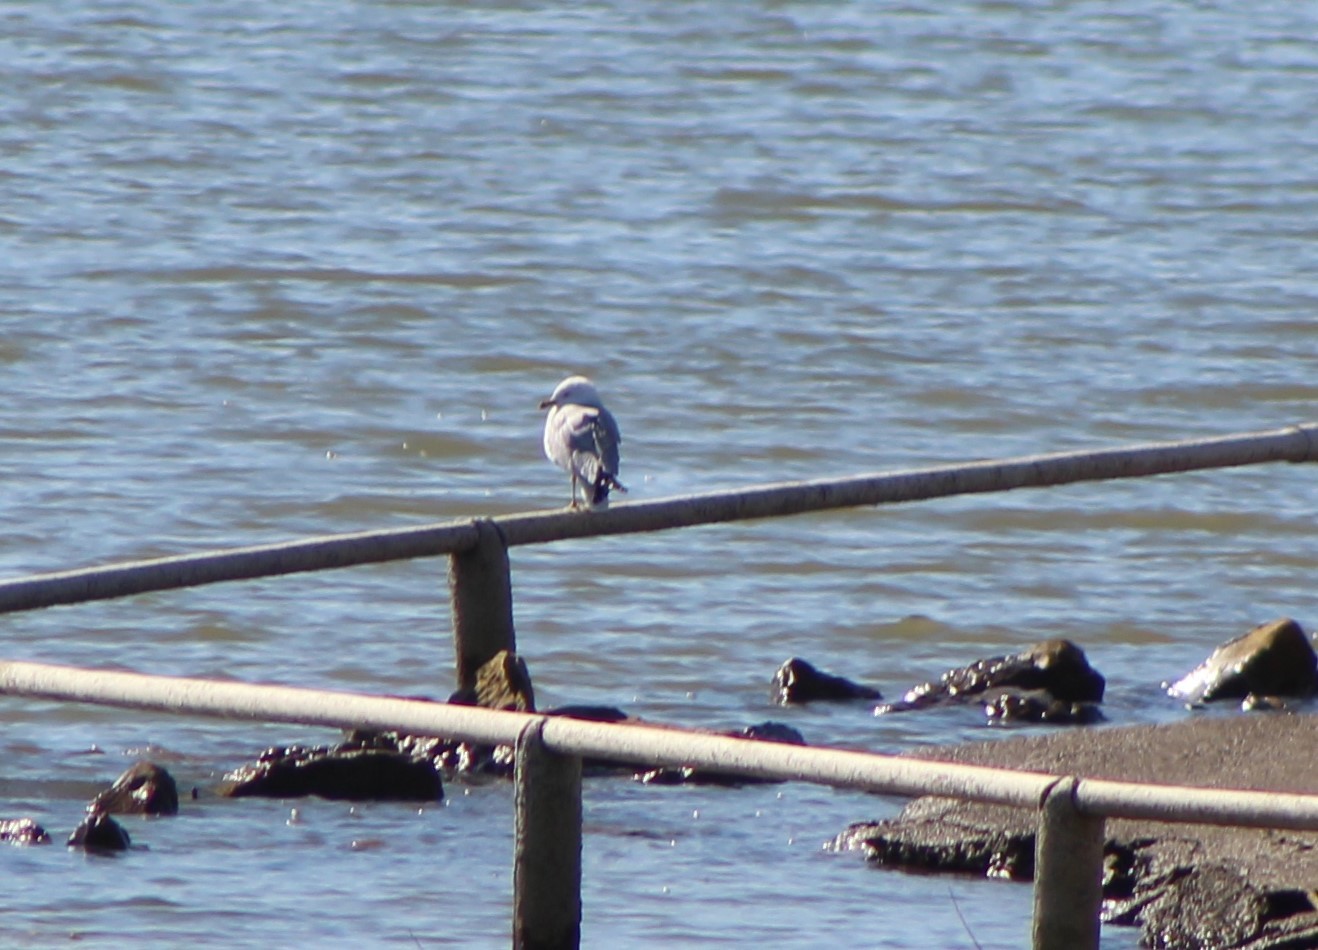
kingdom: Animalia
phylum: Chordata
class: Aves
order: Charadriiformes
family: Laridae
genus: Larus
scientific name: Larus delawarensis
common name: Ring-billed gull
